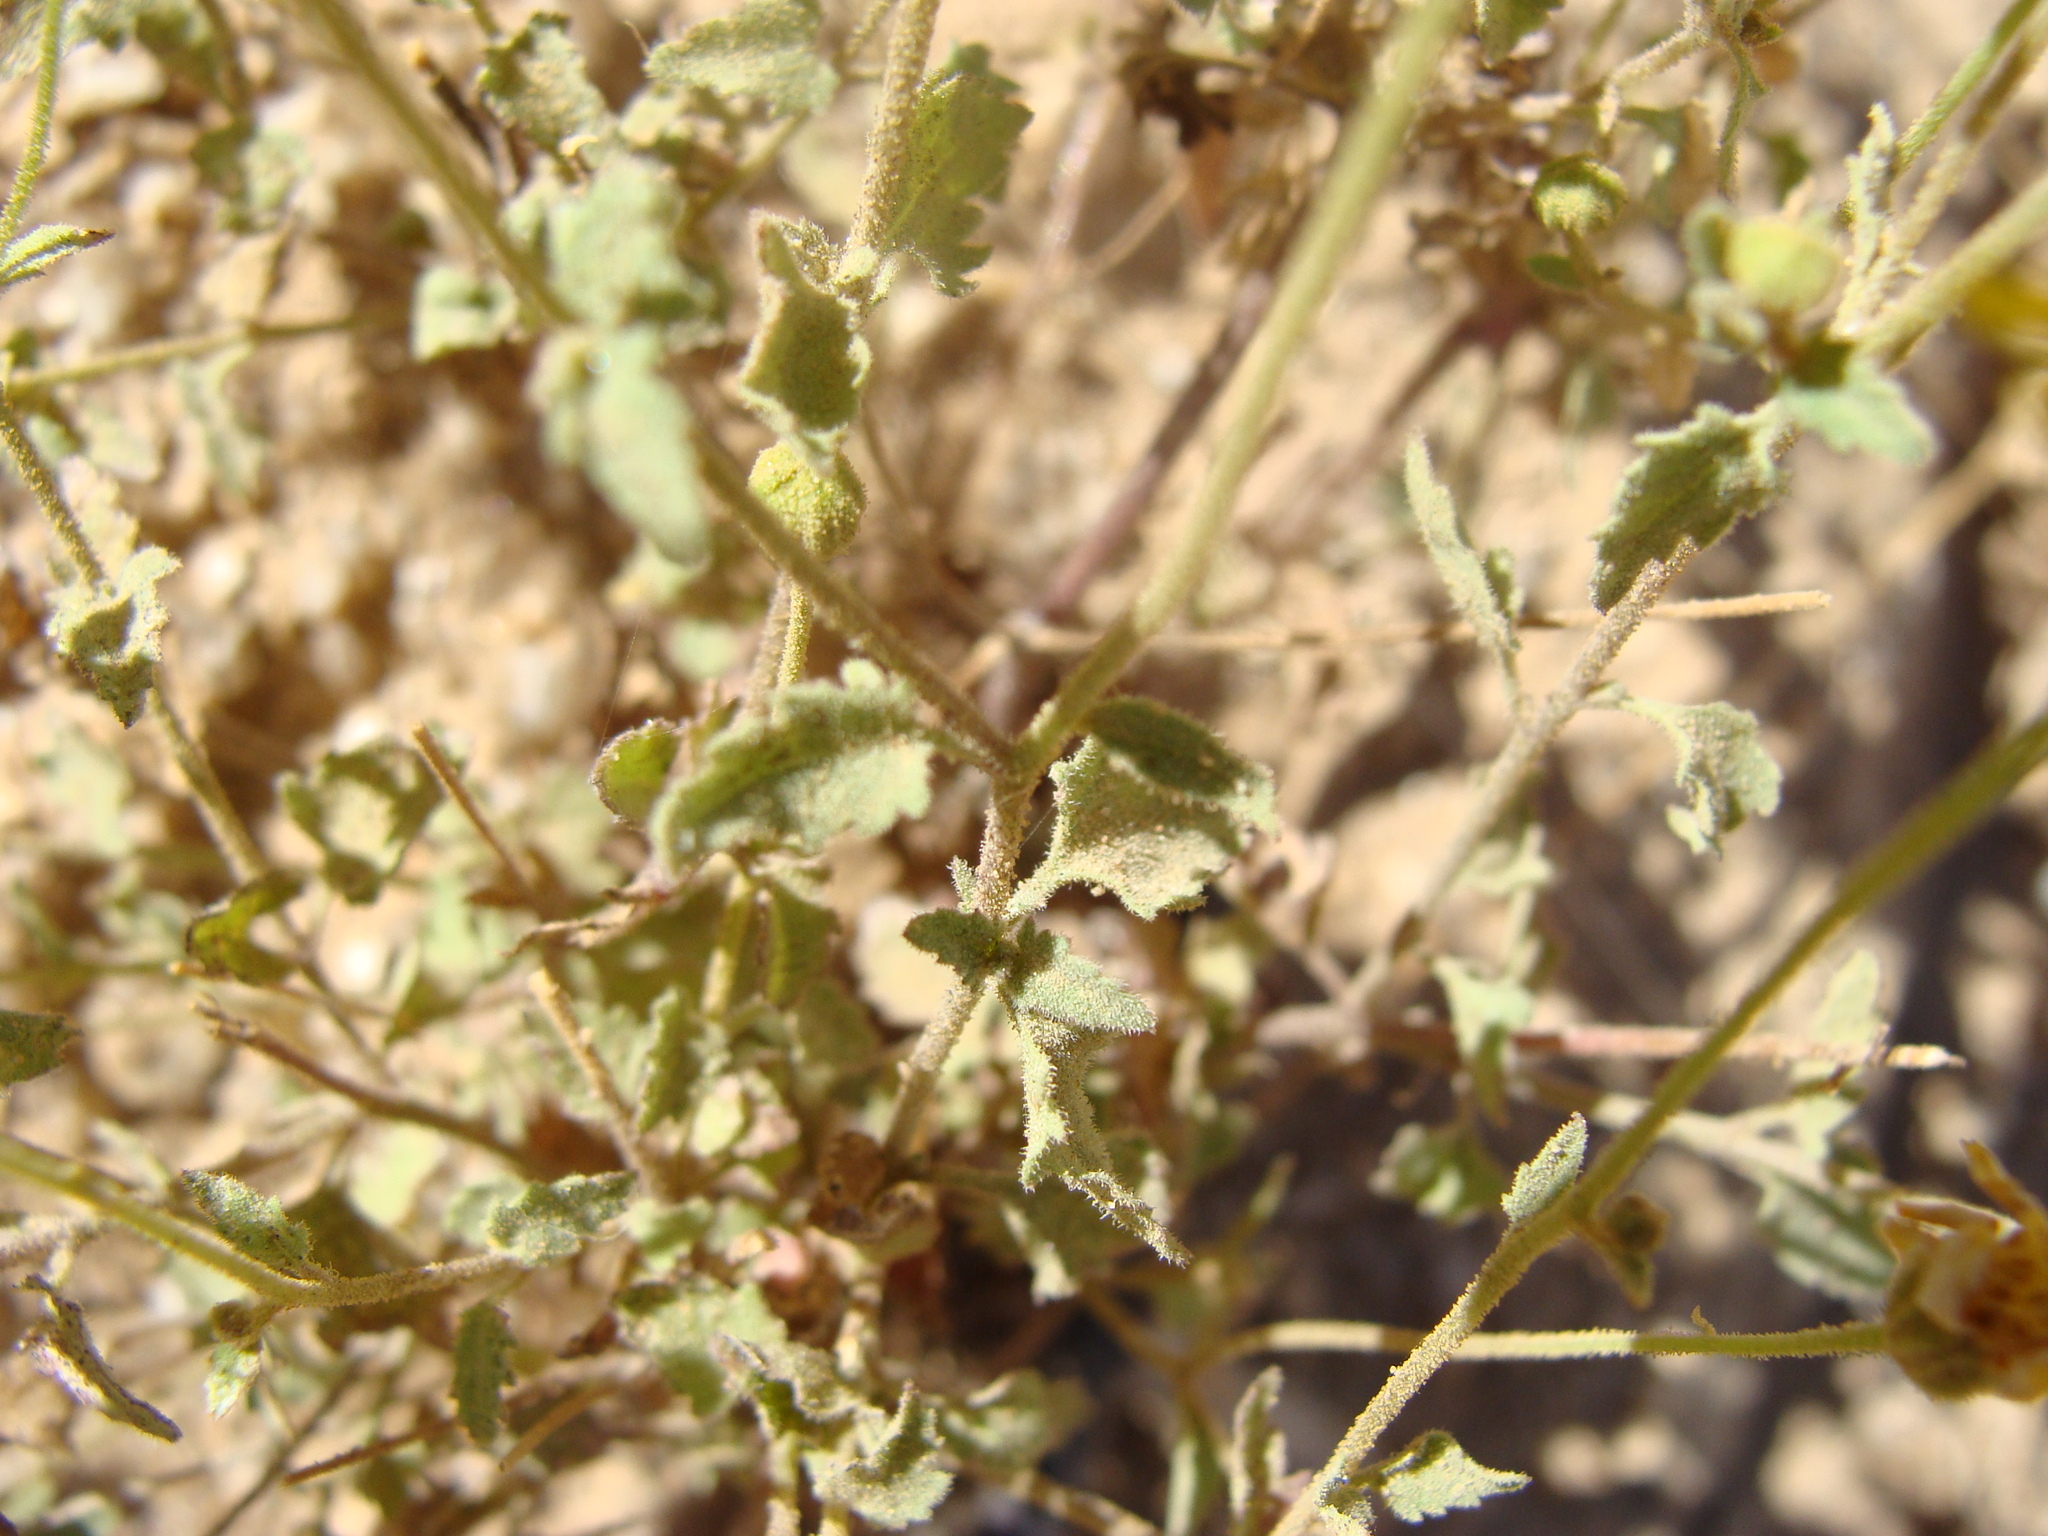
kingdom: Plantae
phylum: Tracheophyta
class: Magnoliopsida
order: Asterales
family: Asteraceae
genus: Perityle
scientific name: Perityle cuneata
